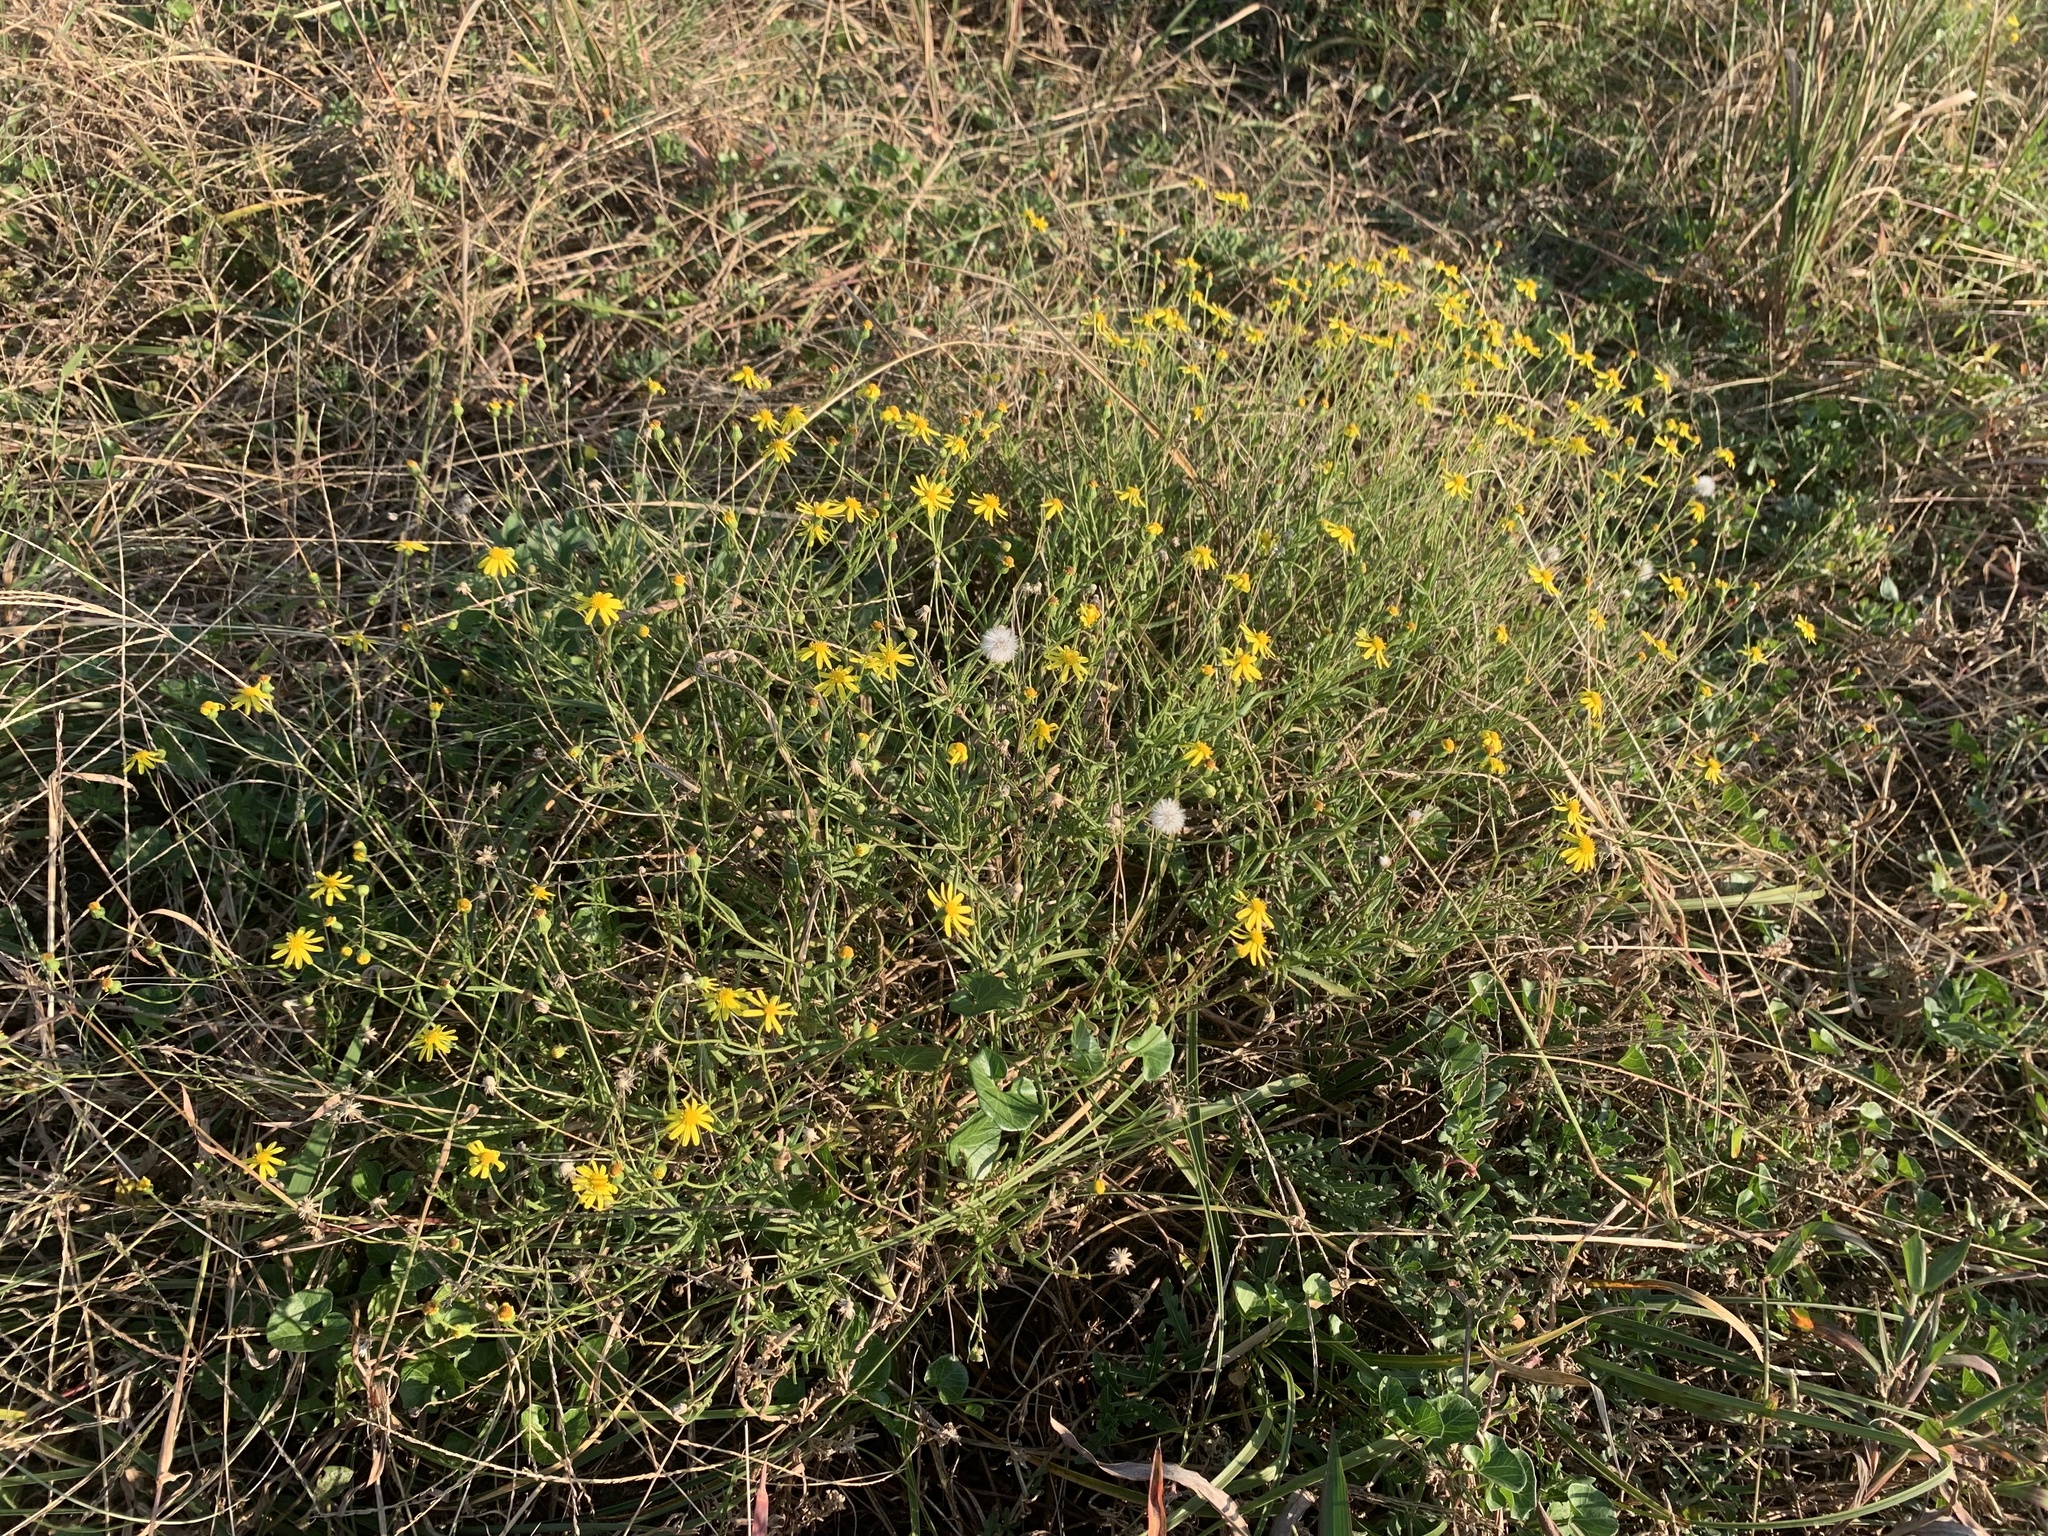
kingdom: Plantae
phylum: Tracheophyta
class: Magnoliopsida
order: Asterales
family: Asteraceae
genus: Senecio
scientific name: Senecio madagascariensis
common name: Madagascar ragwort
